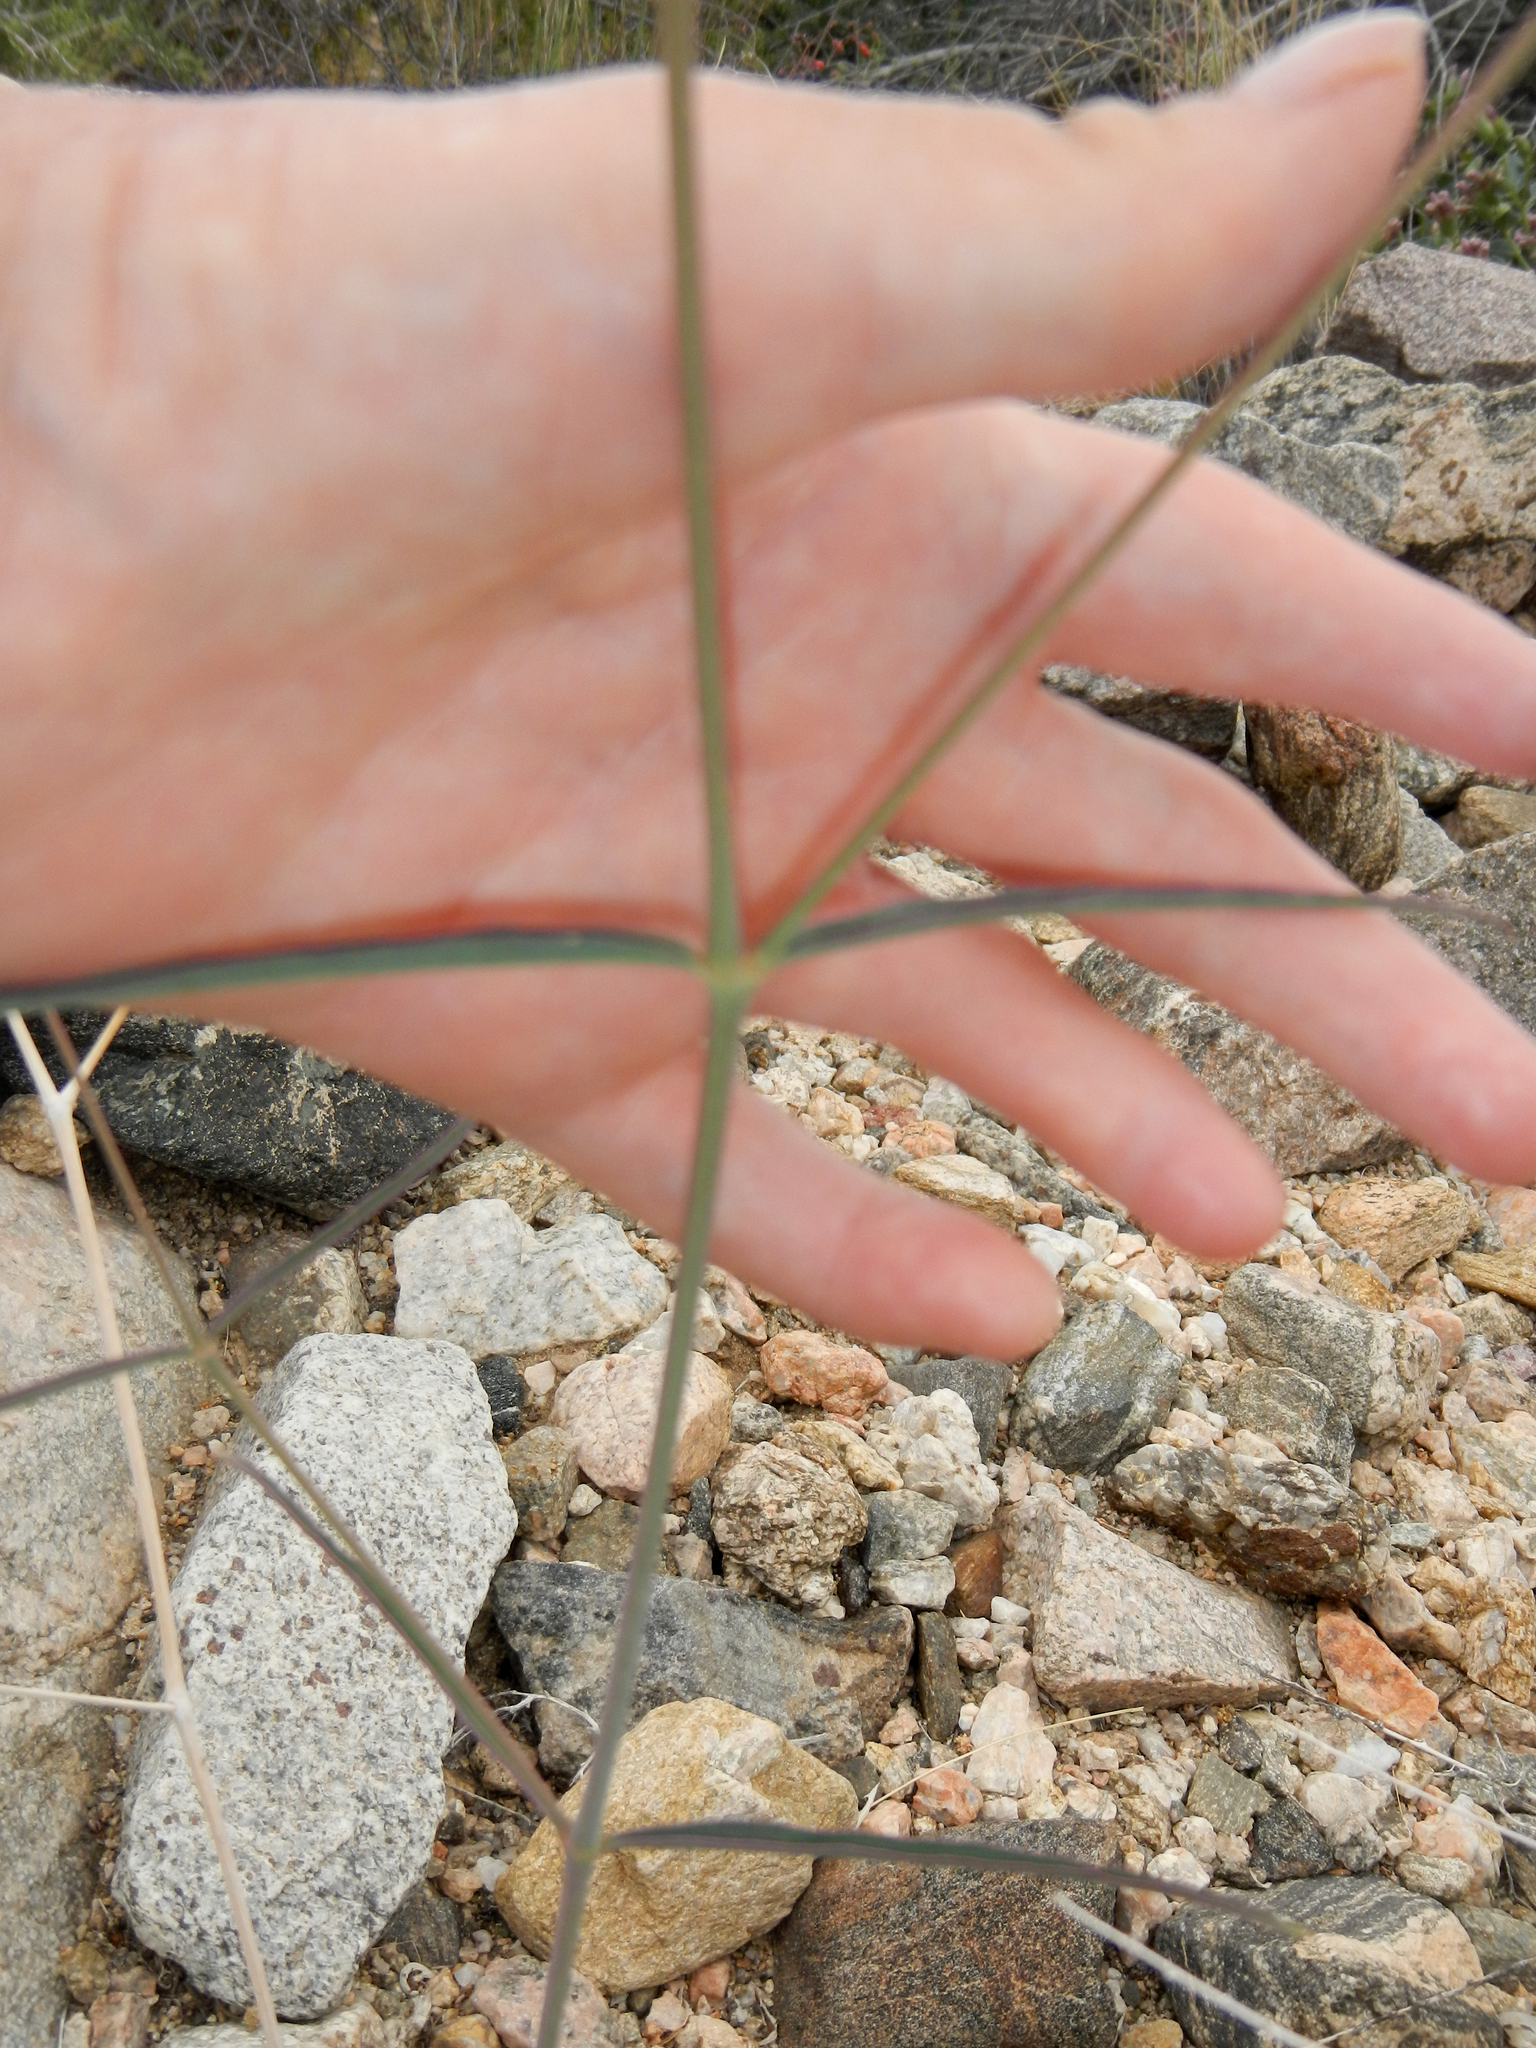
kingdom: Plantae
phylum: Tracheophyta
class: Magnoliopsida
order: Caryophyllales
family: Nyctaginaceae
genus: Mirabilis
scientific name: Mirabilis coccinea
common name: Scarlet four-o'clock
